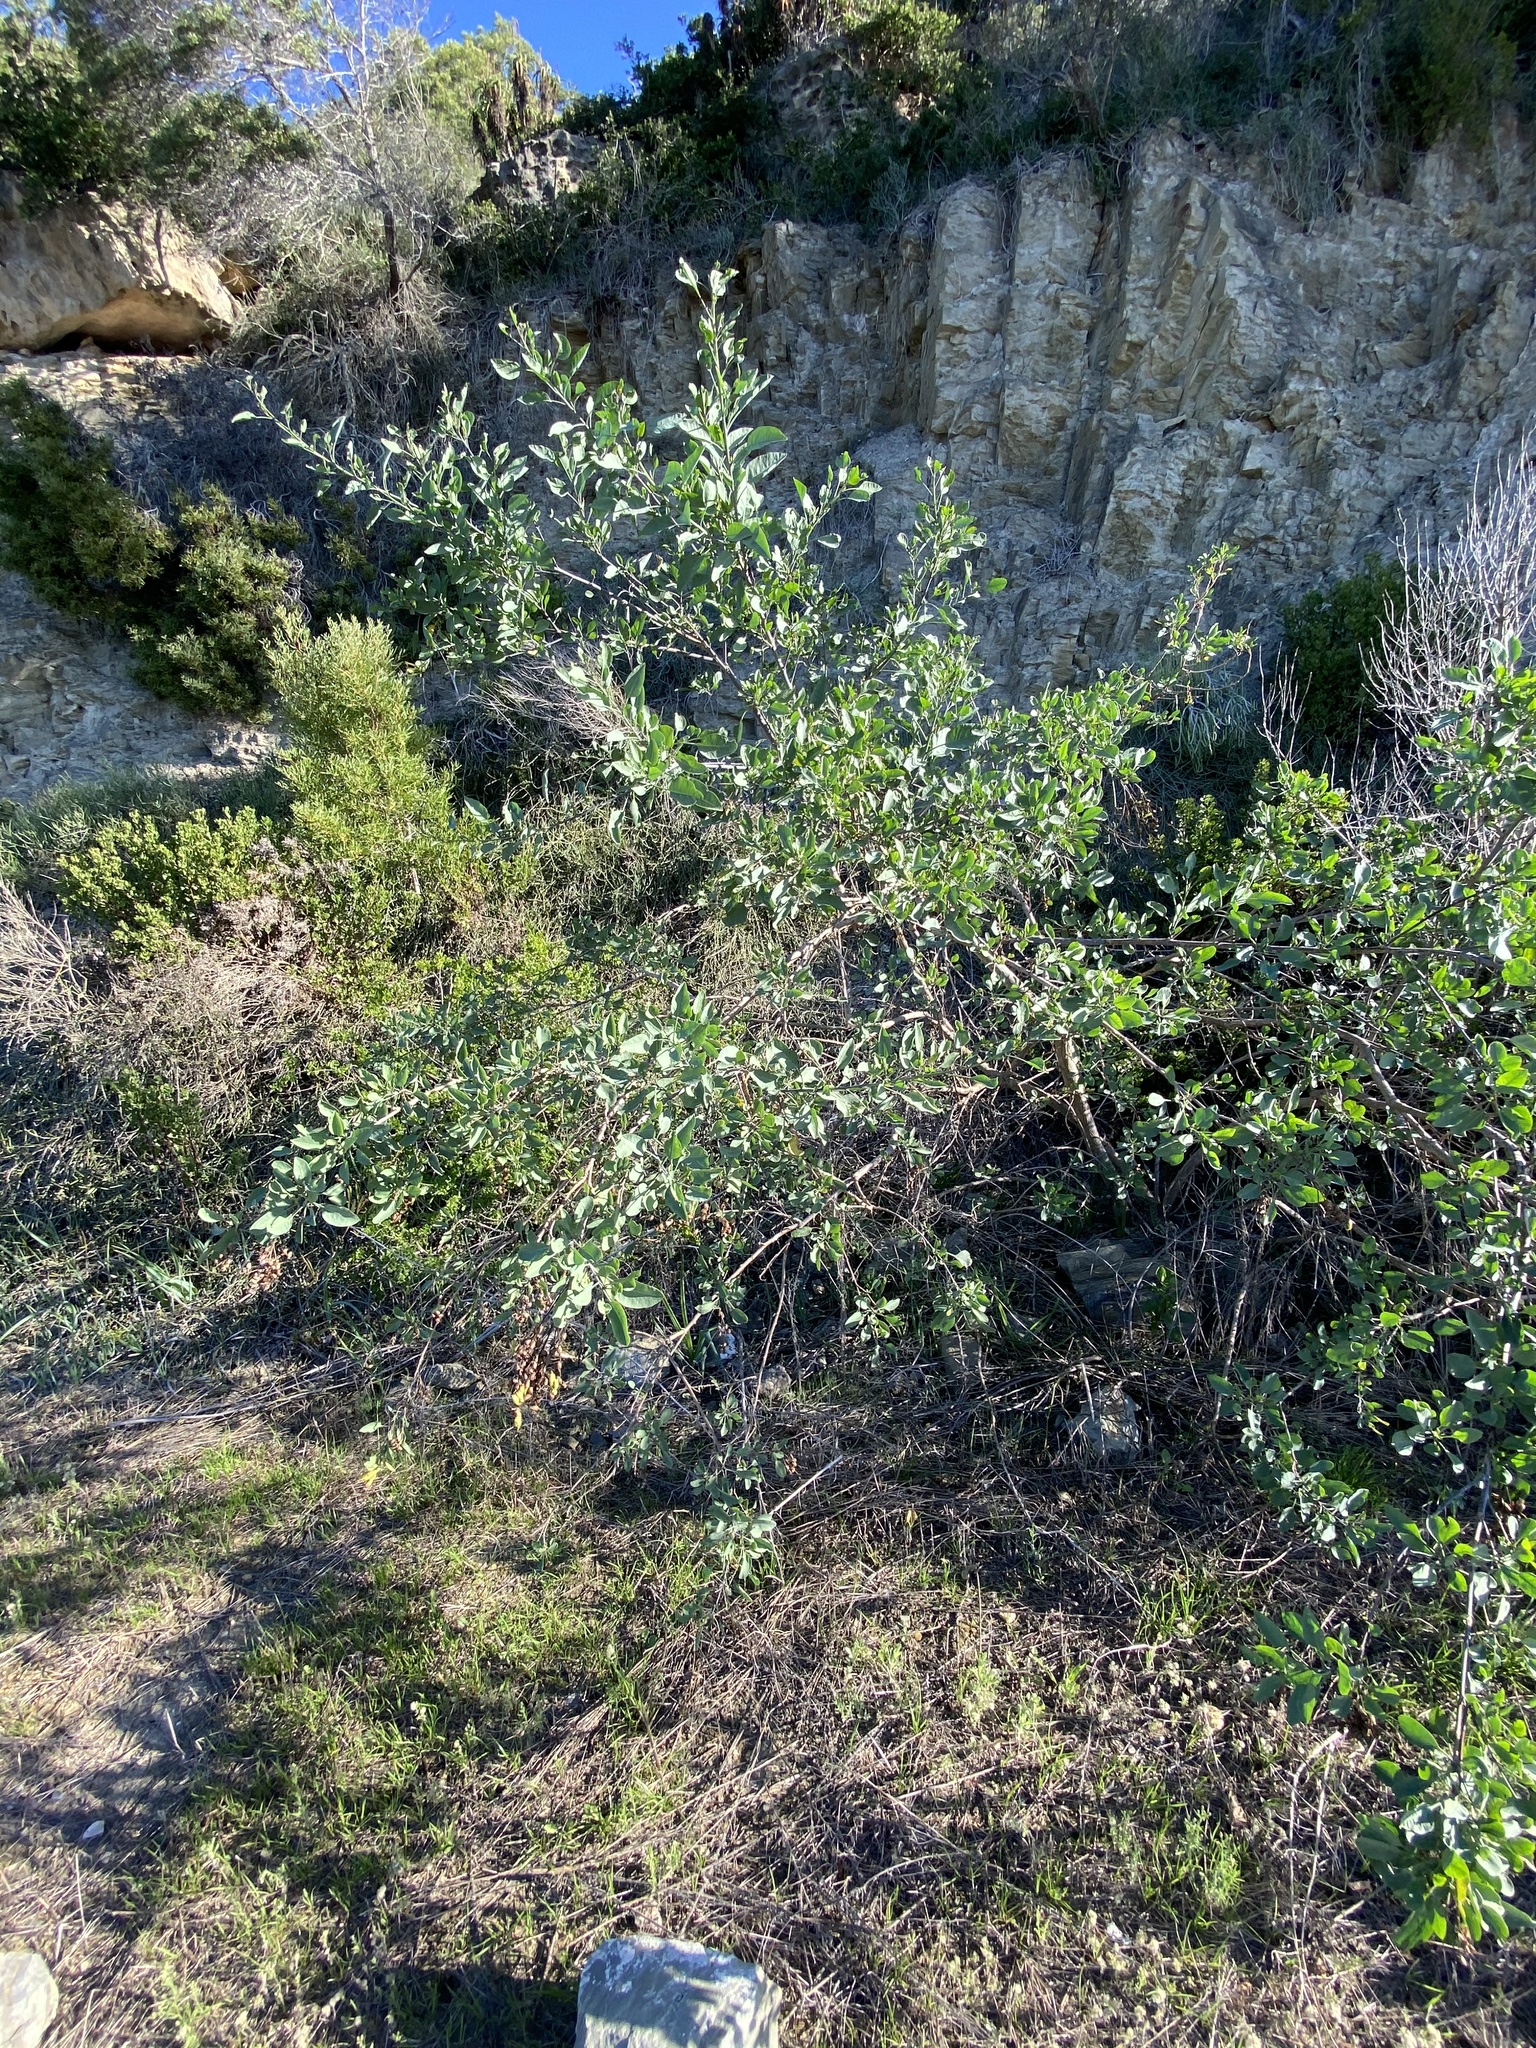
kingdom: Plantae
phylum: Tracheophyta
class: Magnoliopsida
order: Solanales
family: Solanaceae
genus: Nicotiana
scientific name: Nicotiana glauca
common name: Tree tobacco
